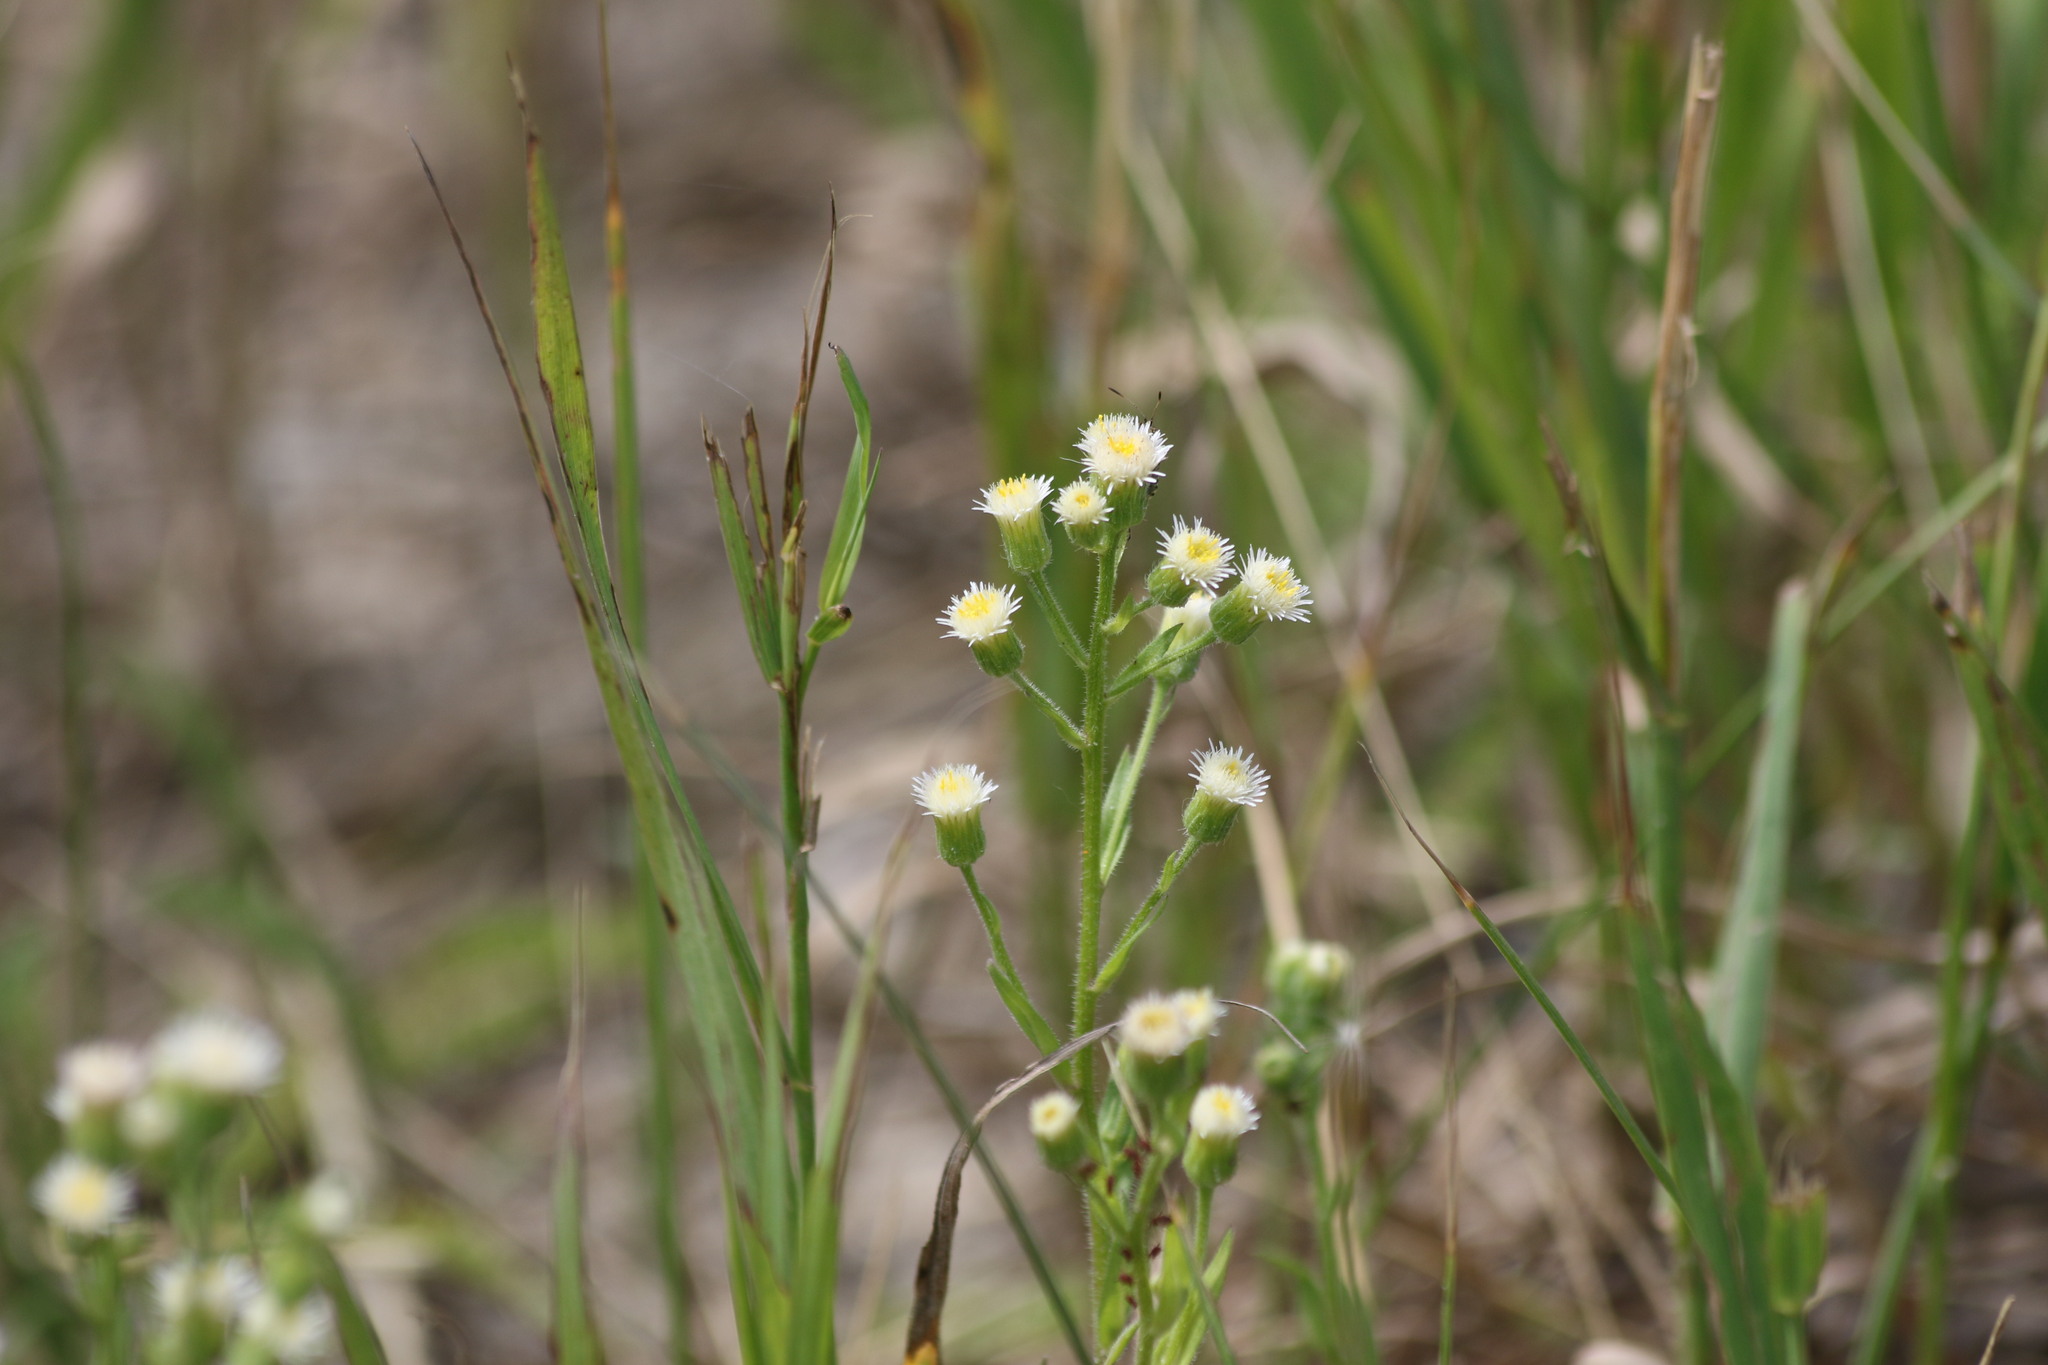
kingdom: Plantae
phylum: Tracheophyta
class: Magnoliopsida
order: Asterales
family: Asteraceae
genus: Erigeron
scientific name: Erigeron acris
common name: Blue fleabane
